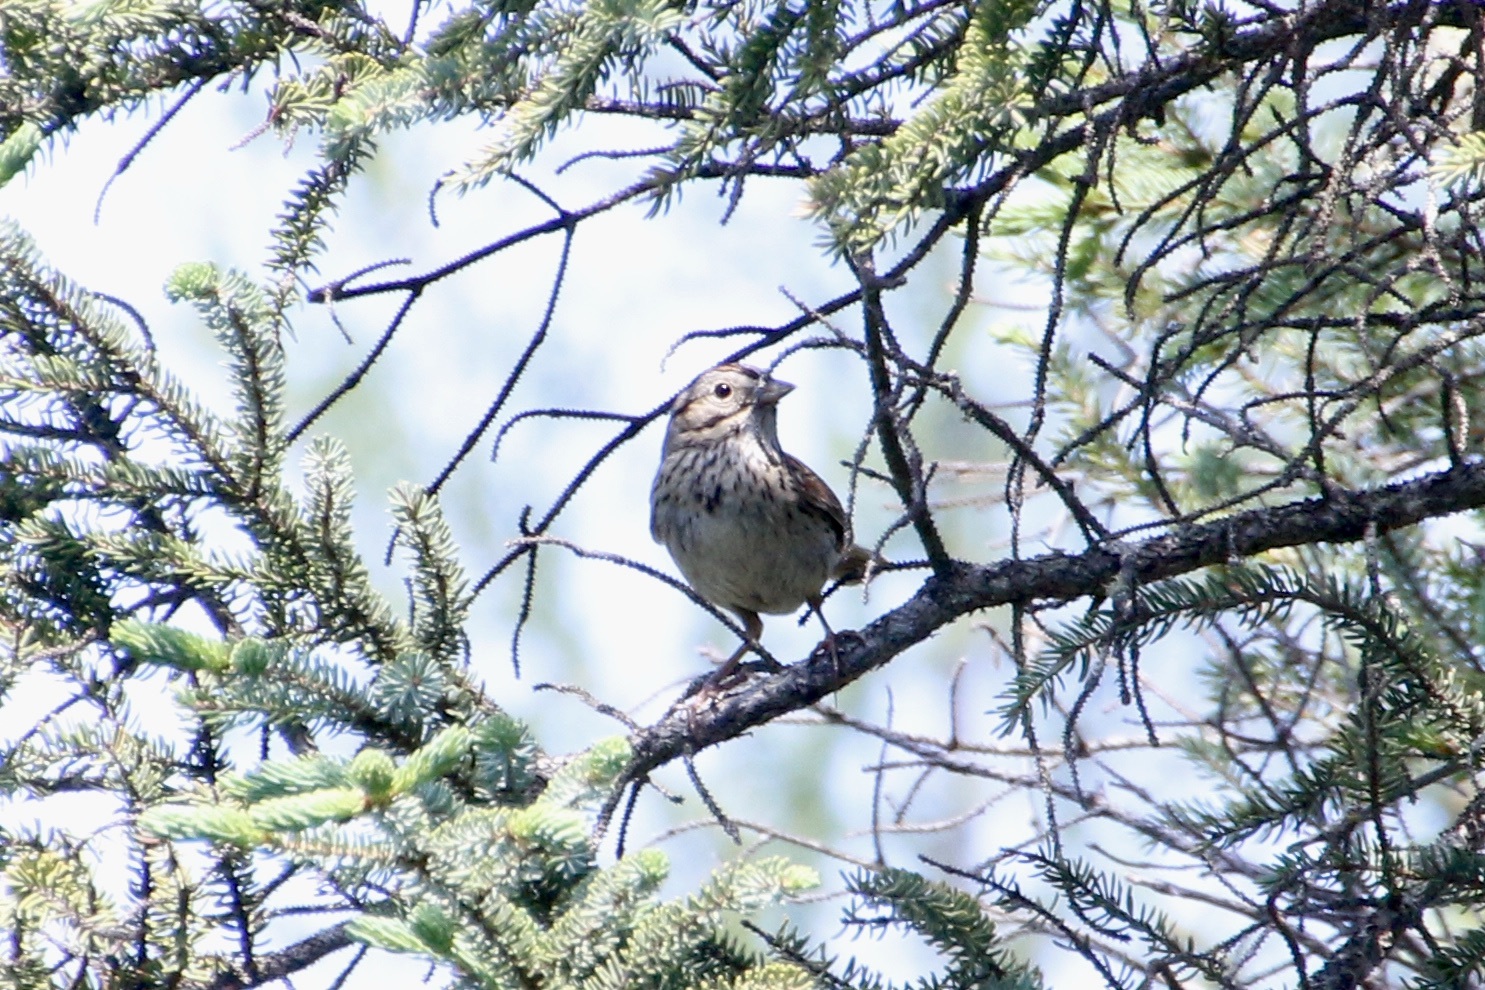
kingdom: Animalia
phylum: Chordata
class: Aves
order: Passeriformes
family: Passerellidae
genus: Melospiza
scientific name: Melospiza lincolnii
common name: Lincoln's sparrow
